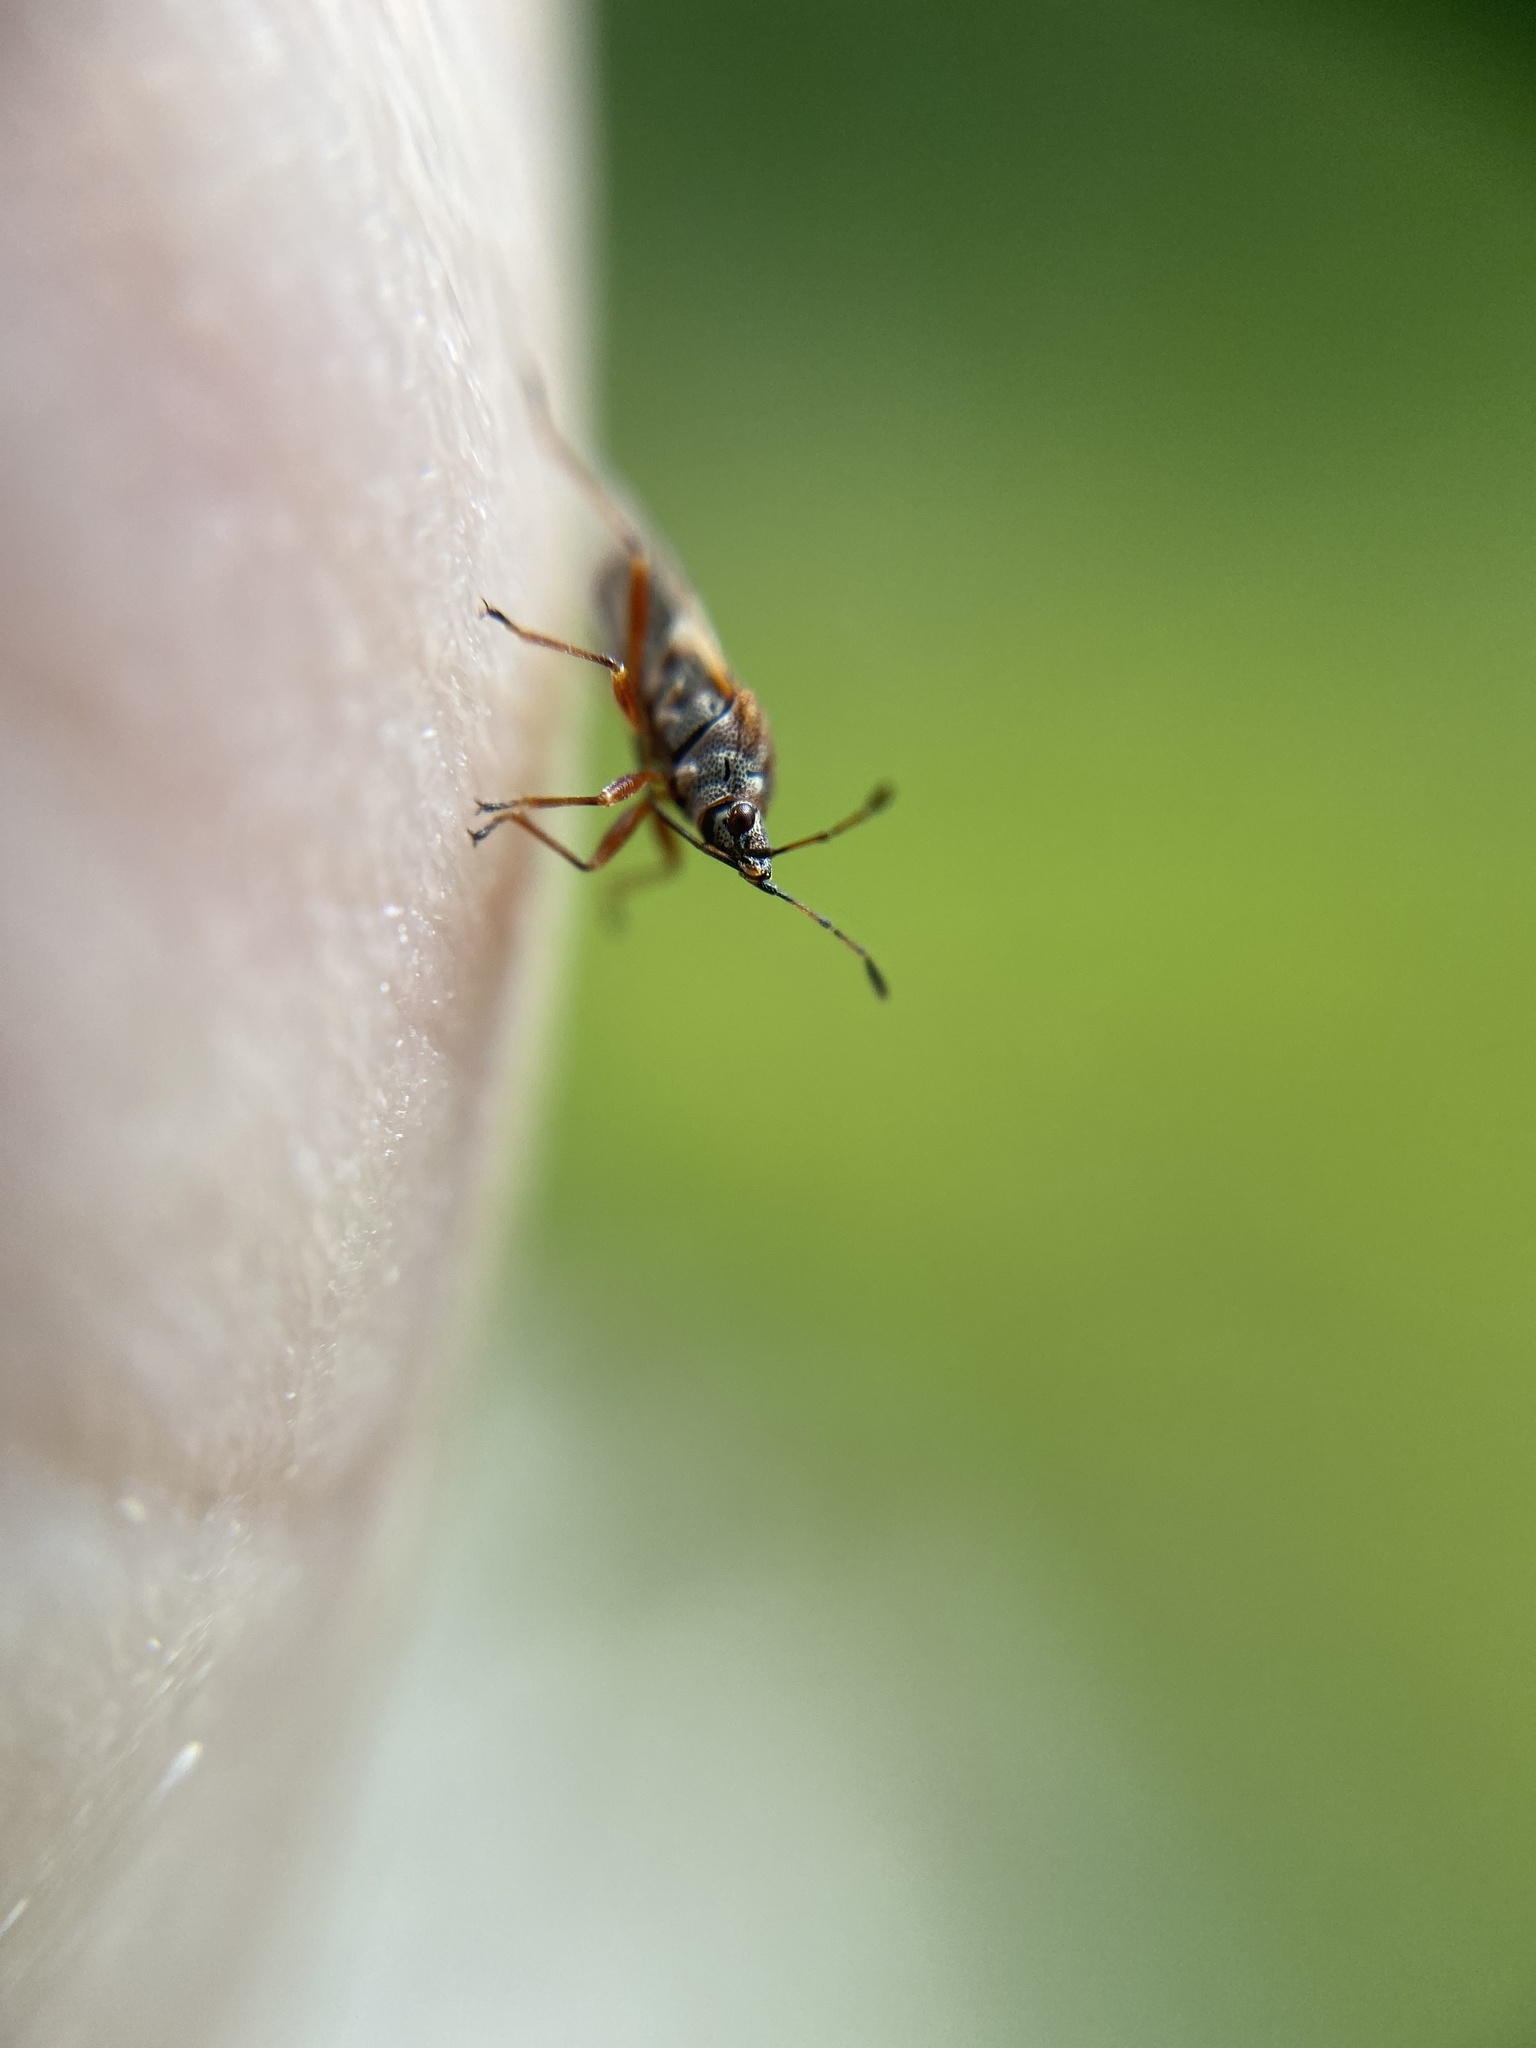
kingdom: Animalia
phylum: Arthropoda
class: Insecta
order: Hemiptera
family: Lygaeidae
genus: Kleidocerys
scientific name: Kleidocerys resedae
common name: Birch catkin bug
